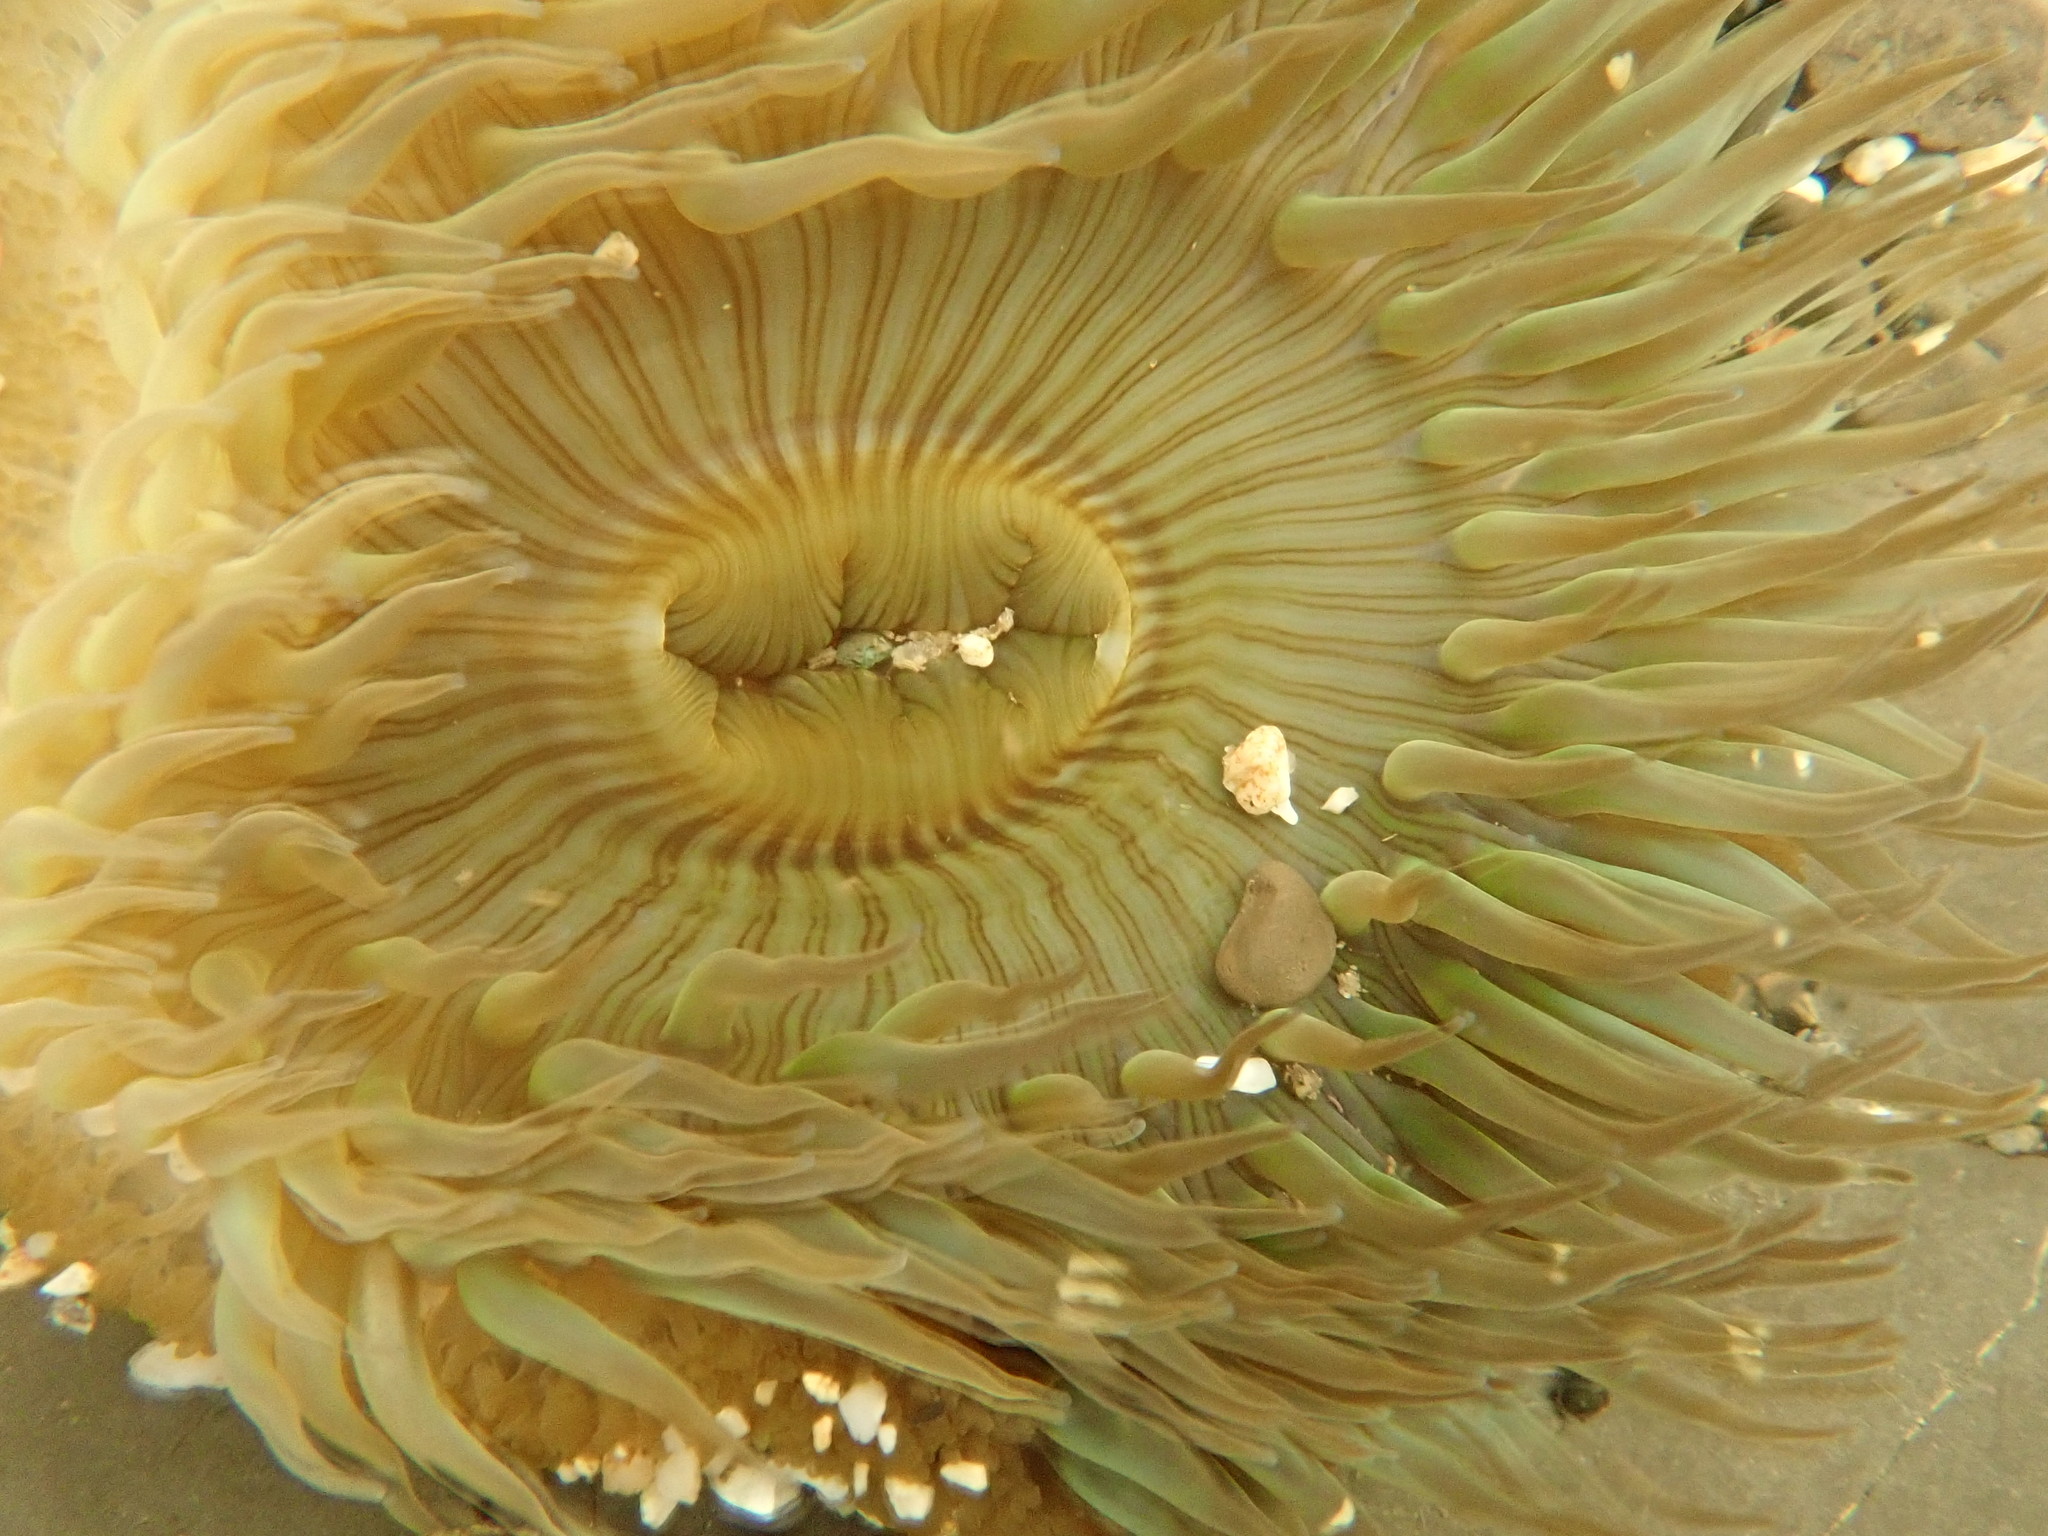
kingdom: Animalia
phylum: Cnidaria
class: Anthozoa
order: Actiniaria
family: Actiniidae
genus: Anthopleura
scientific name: Anthopleura sola
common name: Sun anemone
